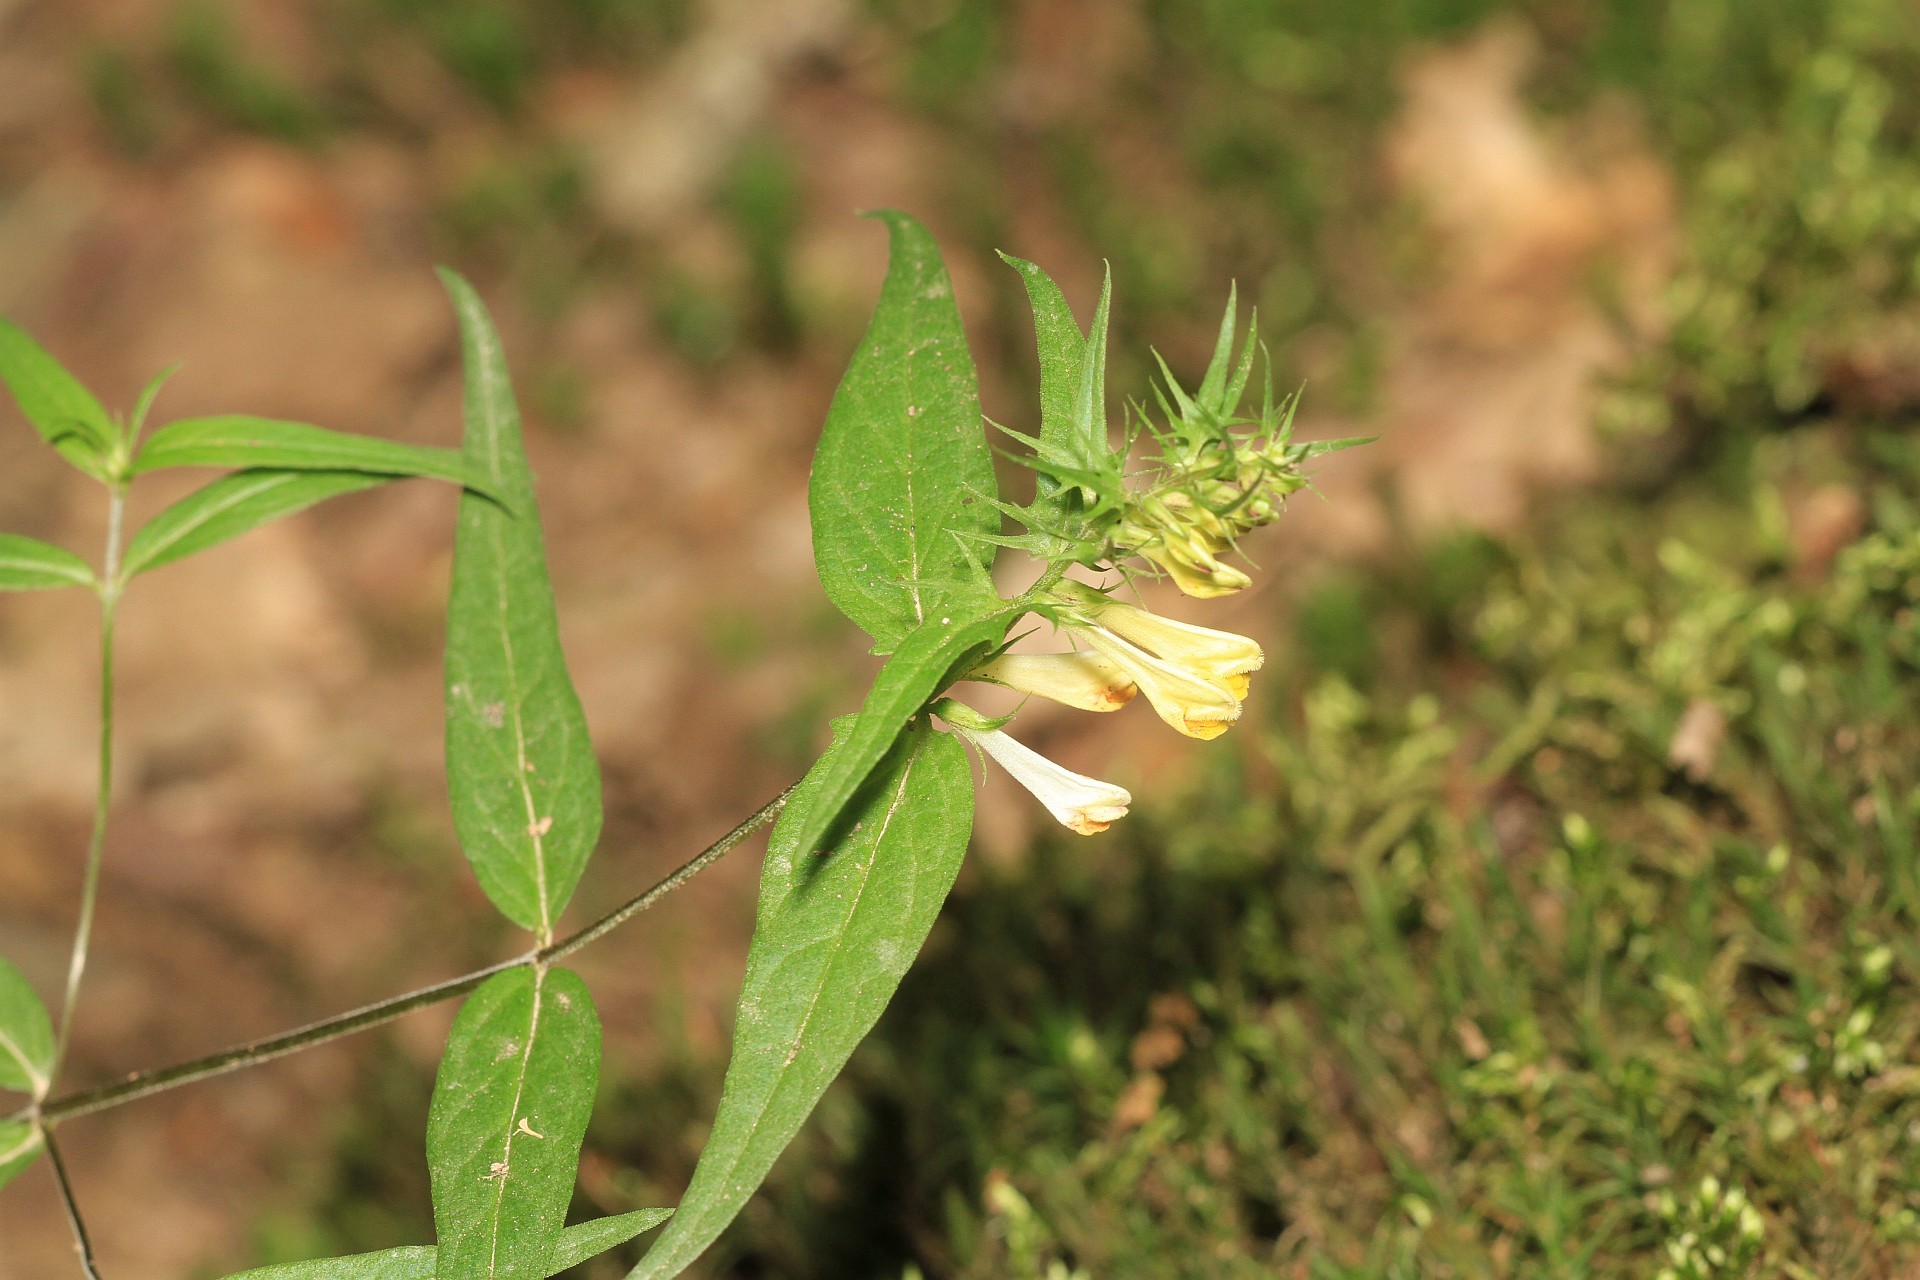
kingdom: Plantae
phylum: Tracheophyta
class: Magnoliopsida
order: Lamiales
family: Orobanchaceae
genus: Melampyrum
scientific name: Melampyrum pratense
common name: Common cow-wheat
